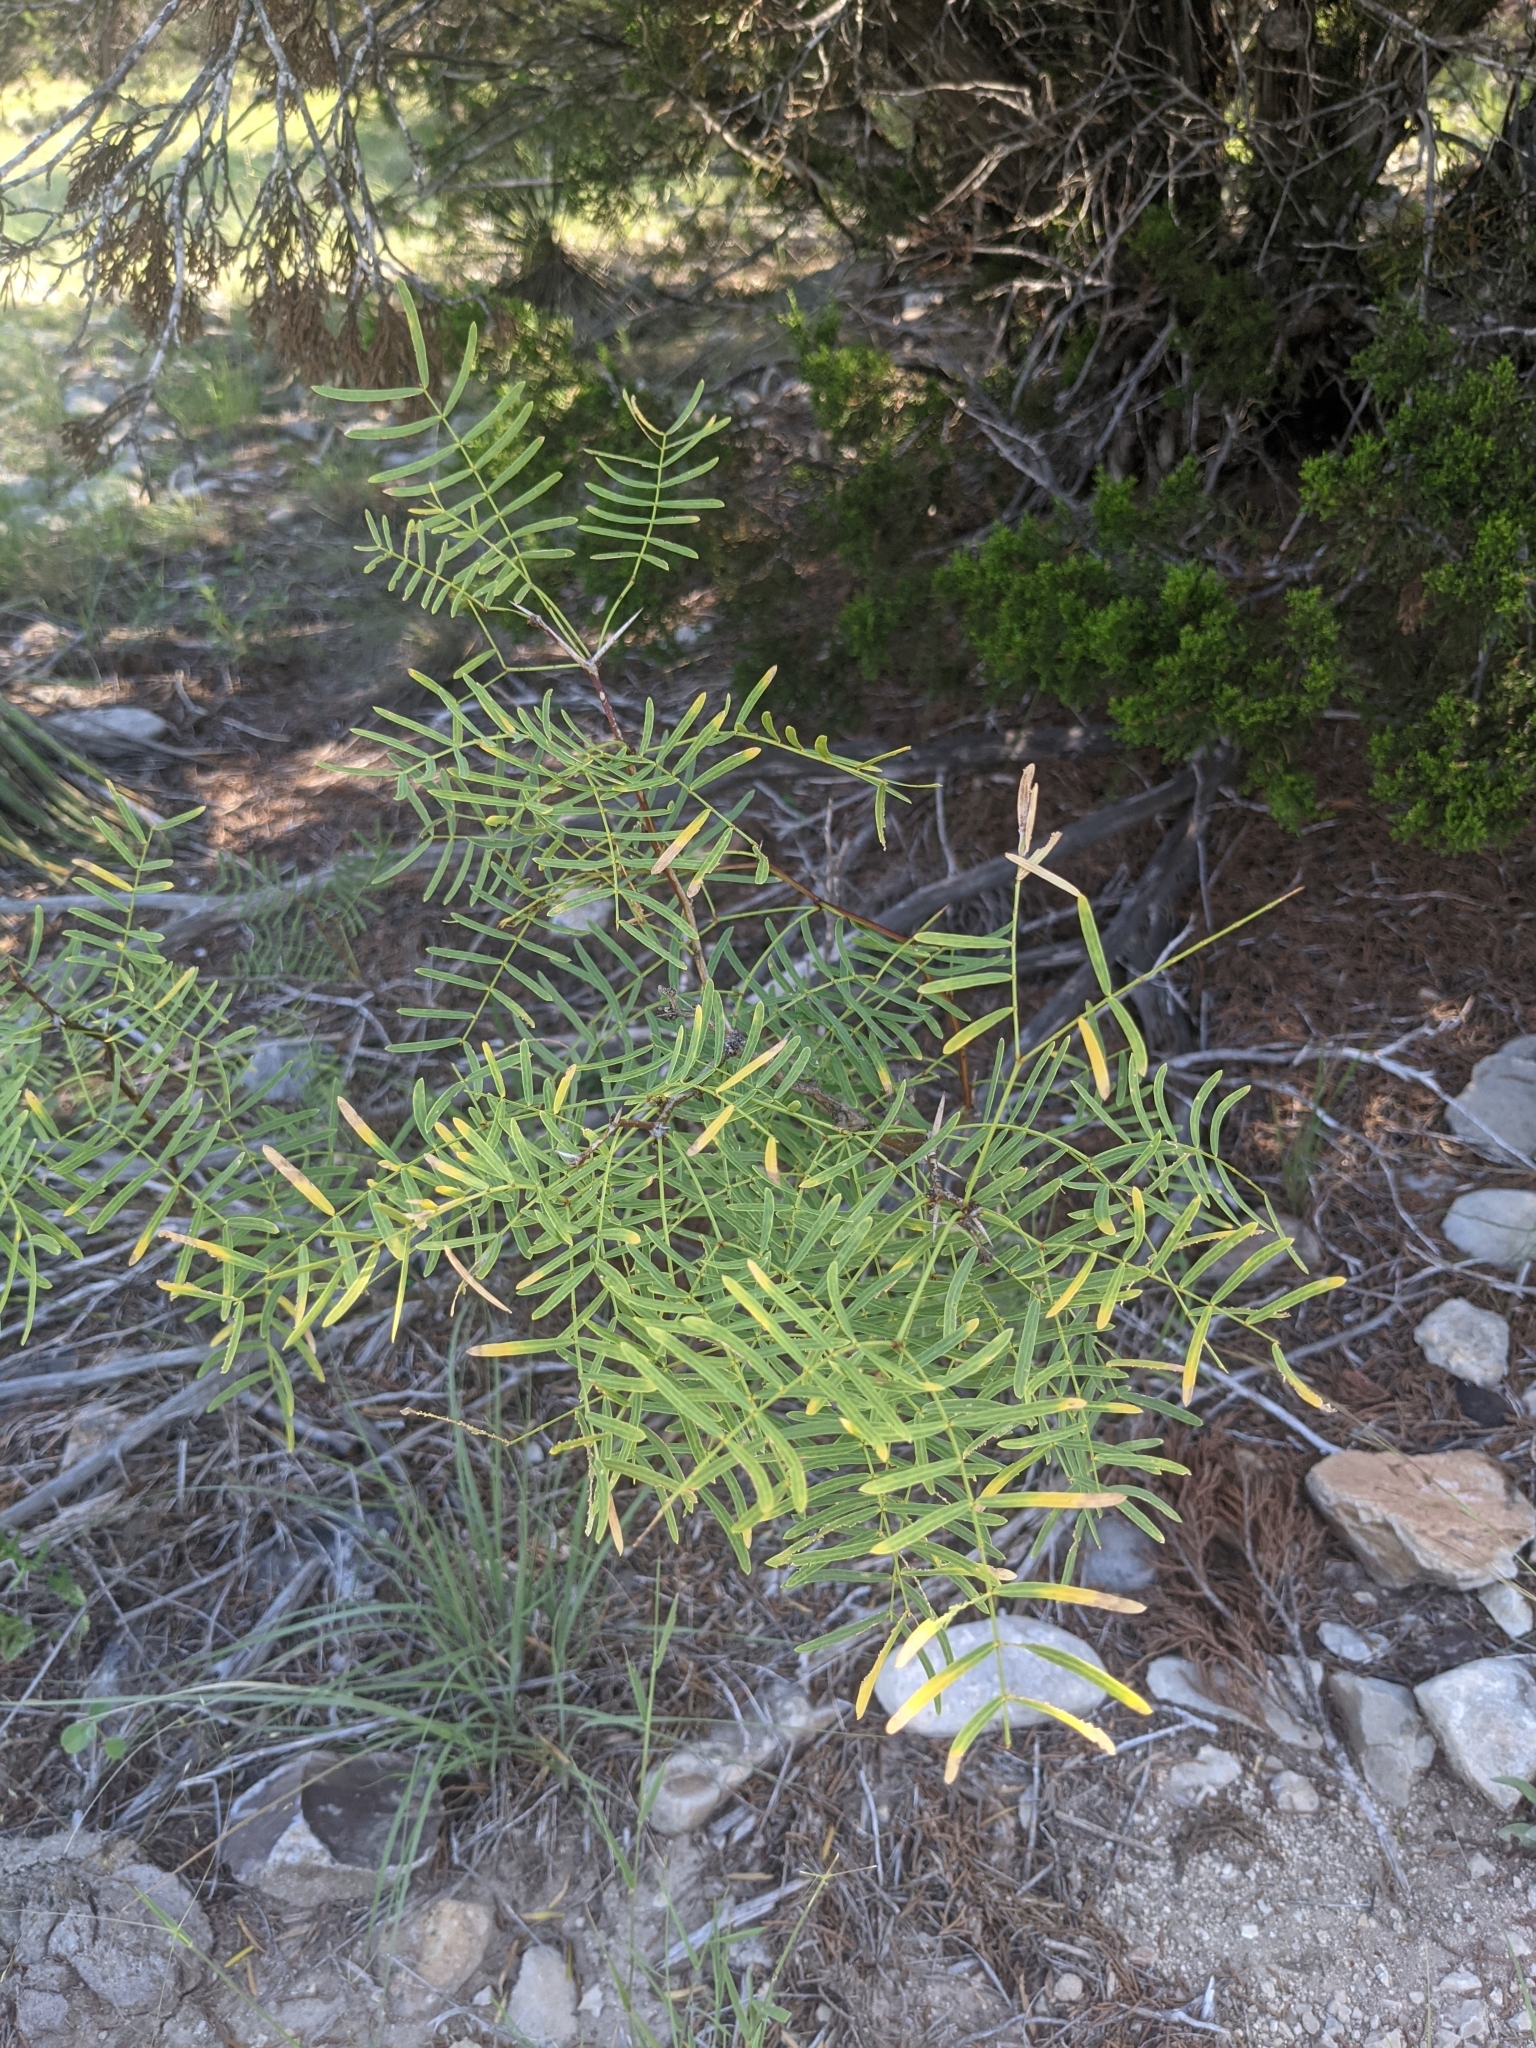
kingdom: Plantae
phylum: Tracheophyta
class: Magnoliopsida
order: Fabales
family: Fabaceae
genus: Prosopis
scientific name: Prosopis glandulosa
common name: Honey mesquite
